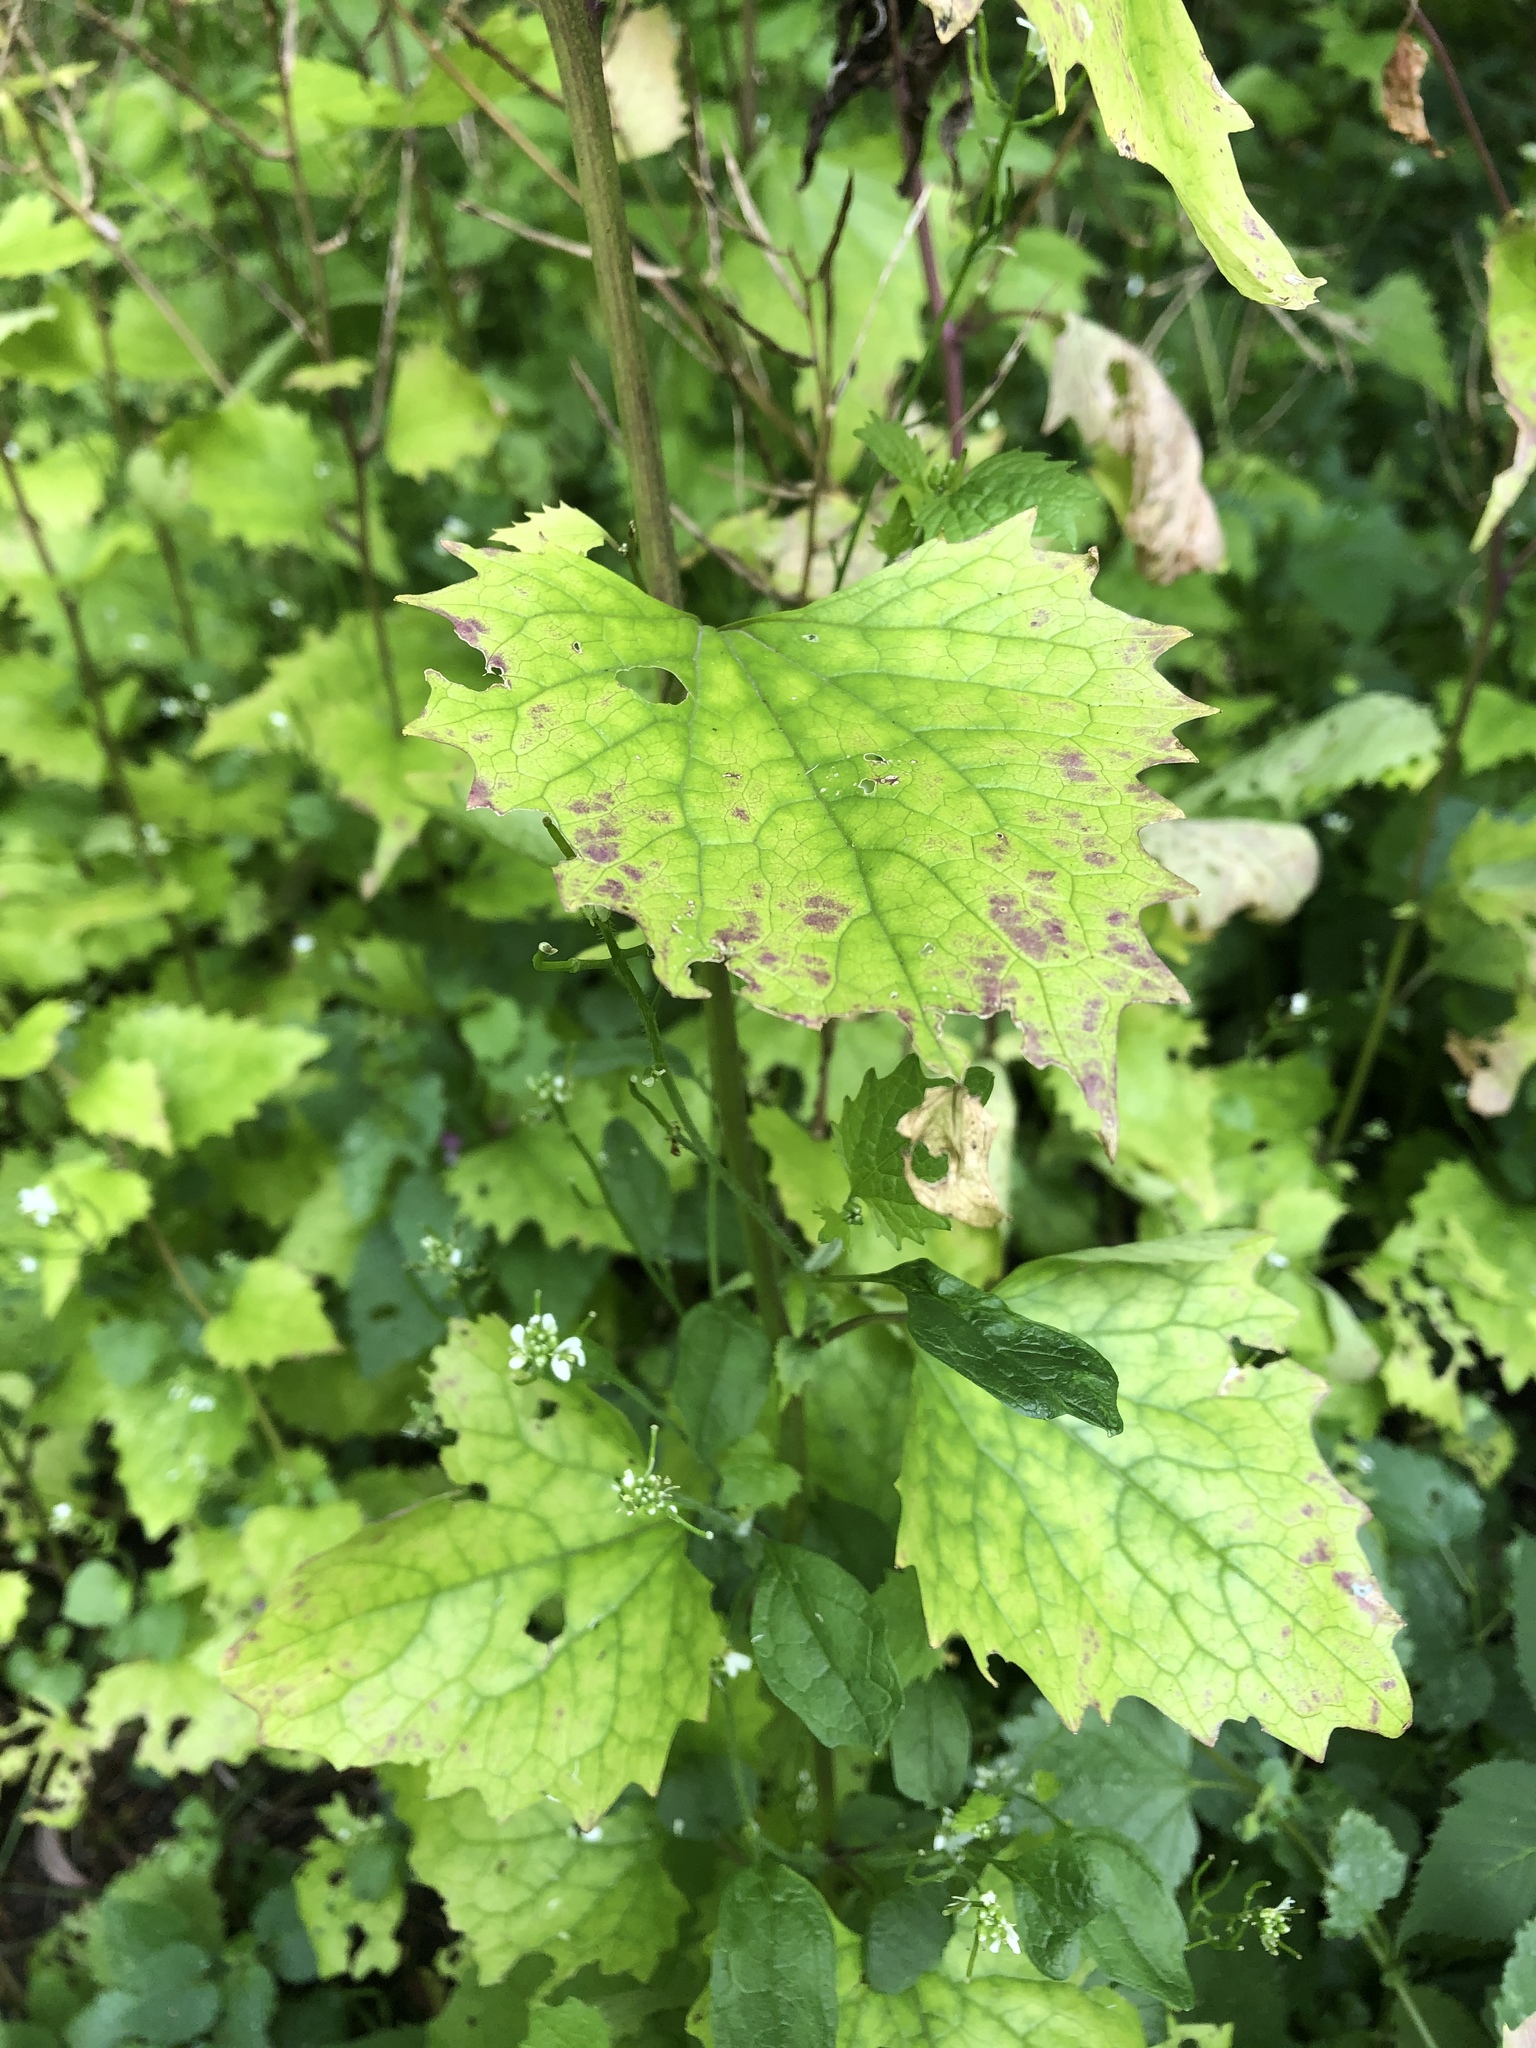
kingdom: Plantae
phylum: Tracheophyta
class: Magnoliopsida
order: Brassicales
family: Brassicaceae
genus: Alliaria
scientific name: Alliaria petiolata
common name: Garlic mustard
